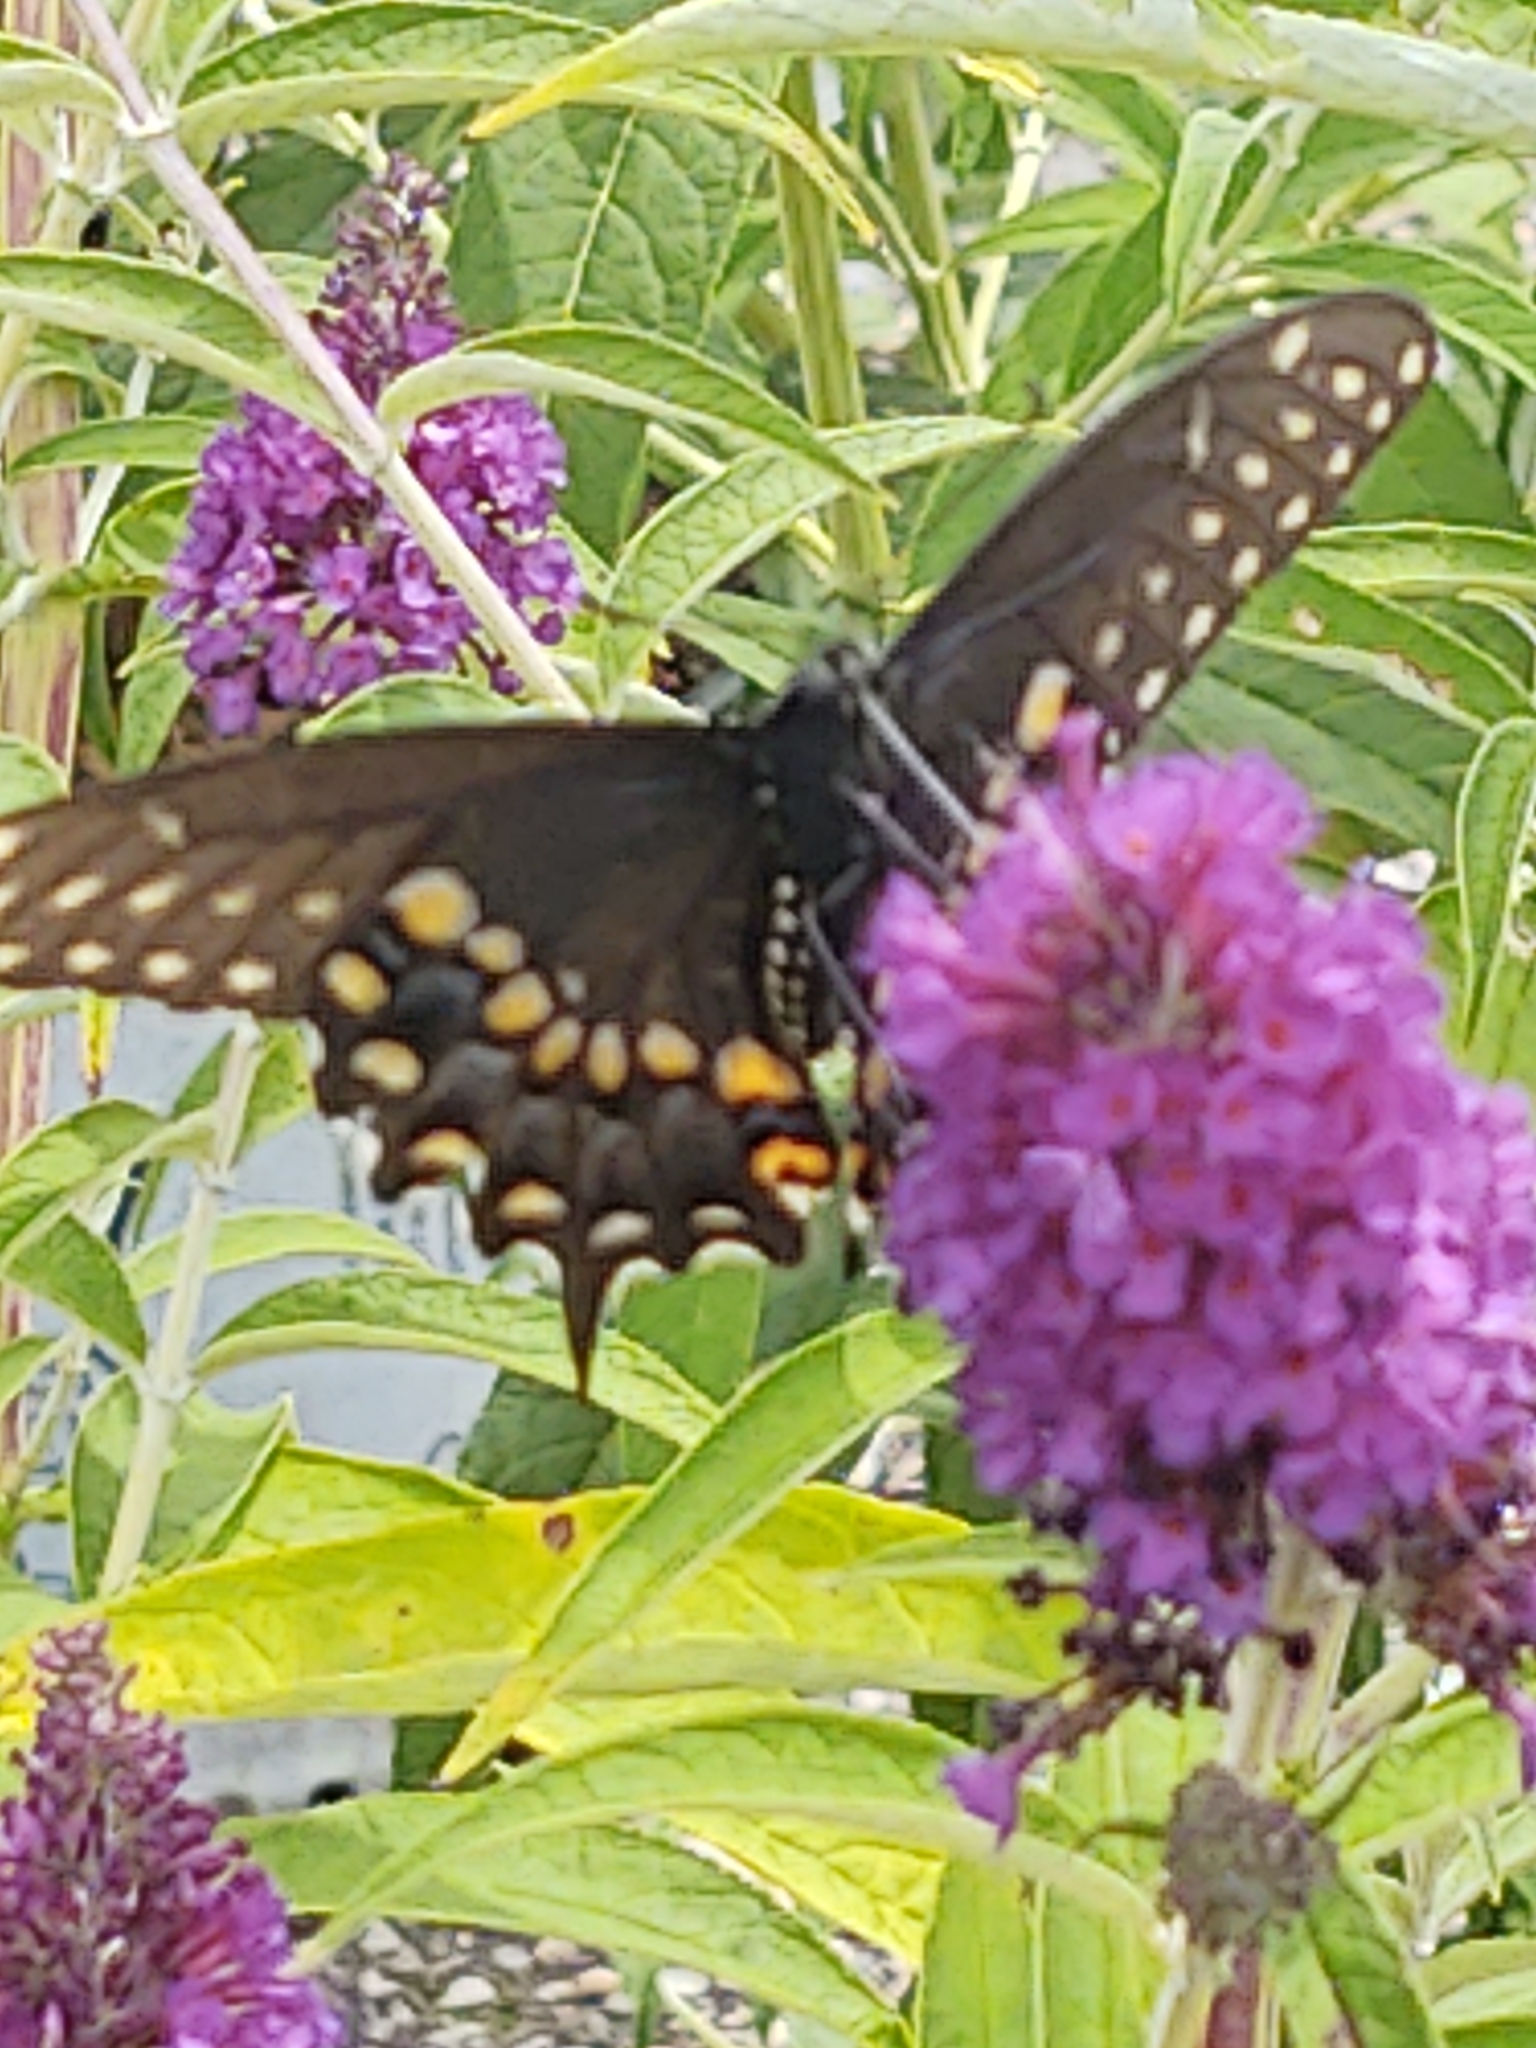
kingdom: Animalia
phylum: Arthropoda
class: Insecta
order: Lepidoptera
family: Papilionidae
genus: Papilio
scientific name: Papilio polyxenes
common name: Black swallowtail
